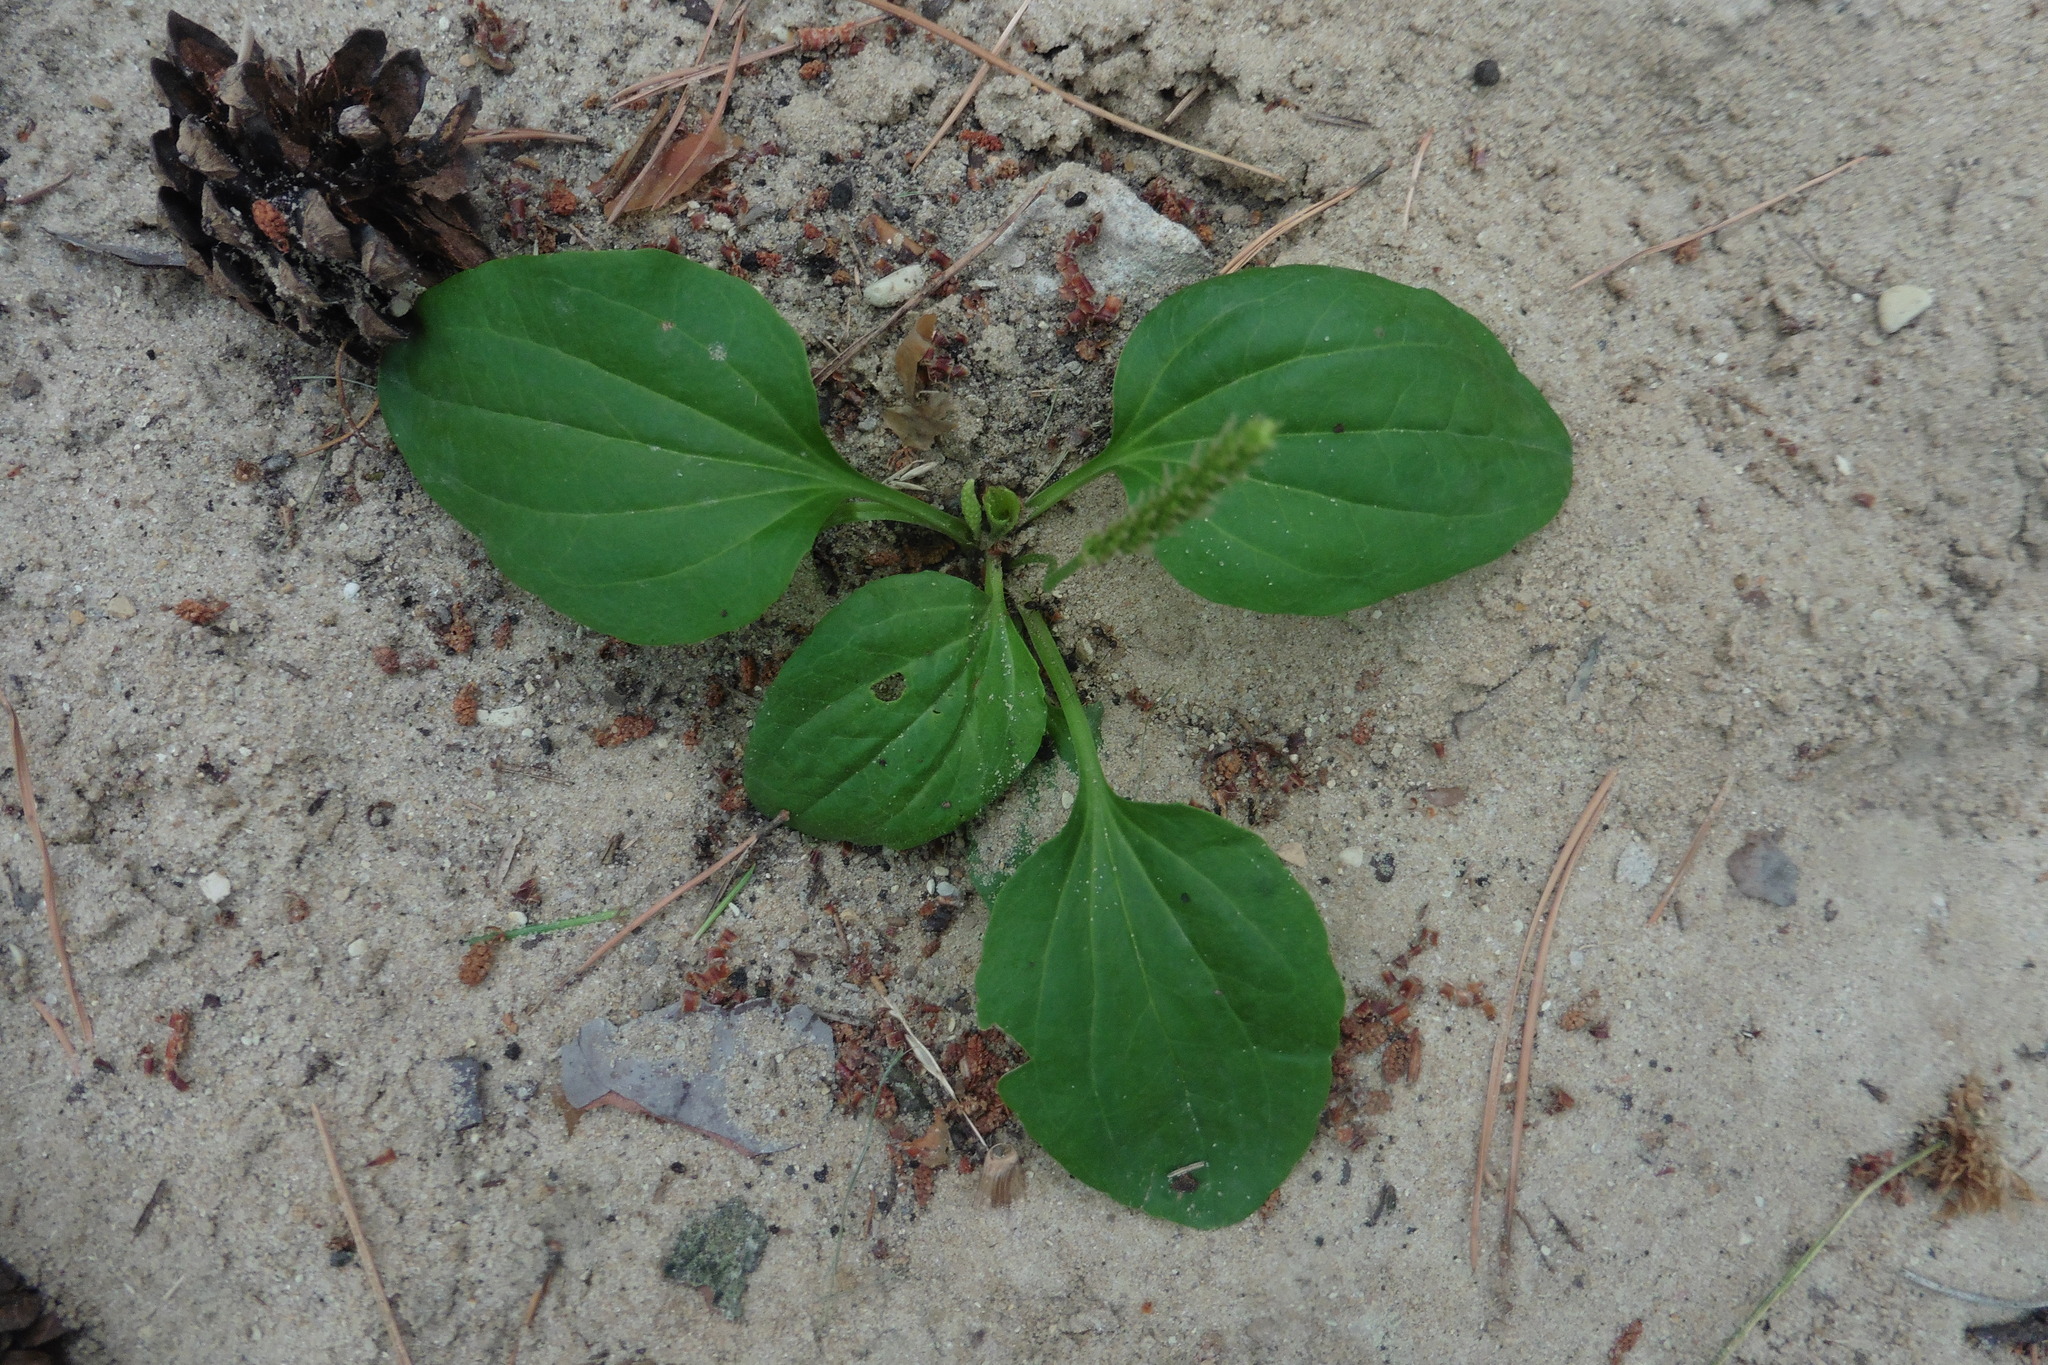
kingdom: Plantae
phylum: Tracheophyta
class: Magnoliopsida
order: Lamiales
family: Plantaginaceae
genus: Plantago
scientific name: Plantago major
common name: Common plantain
